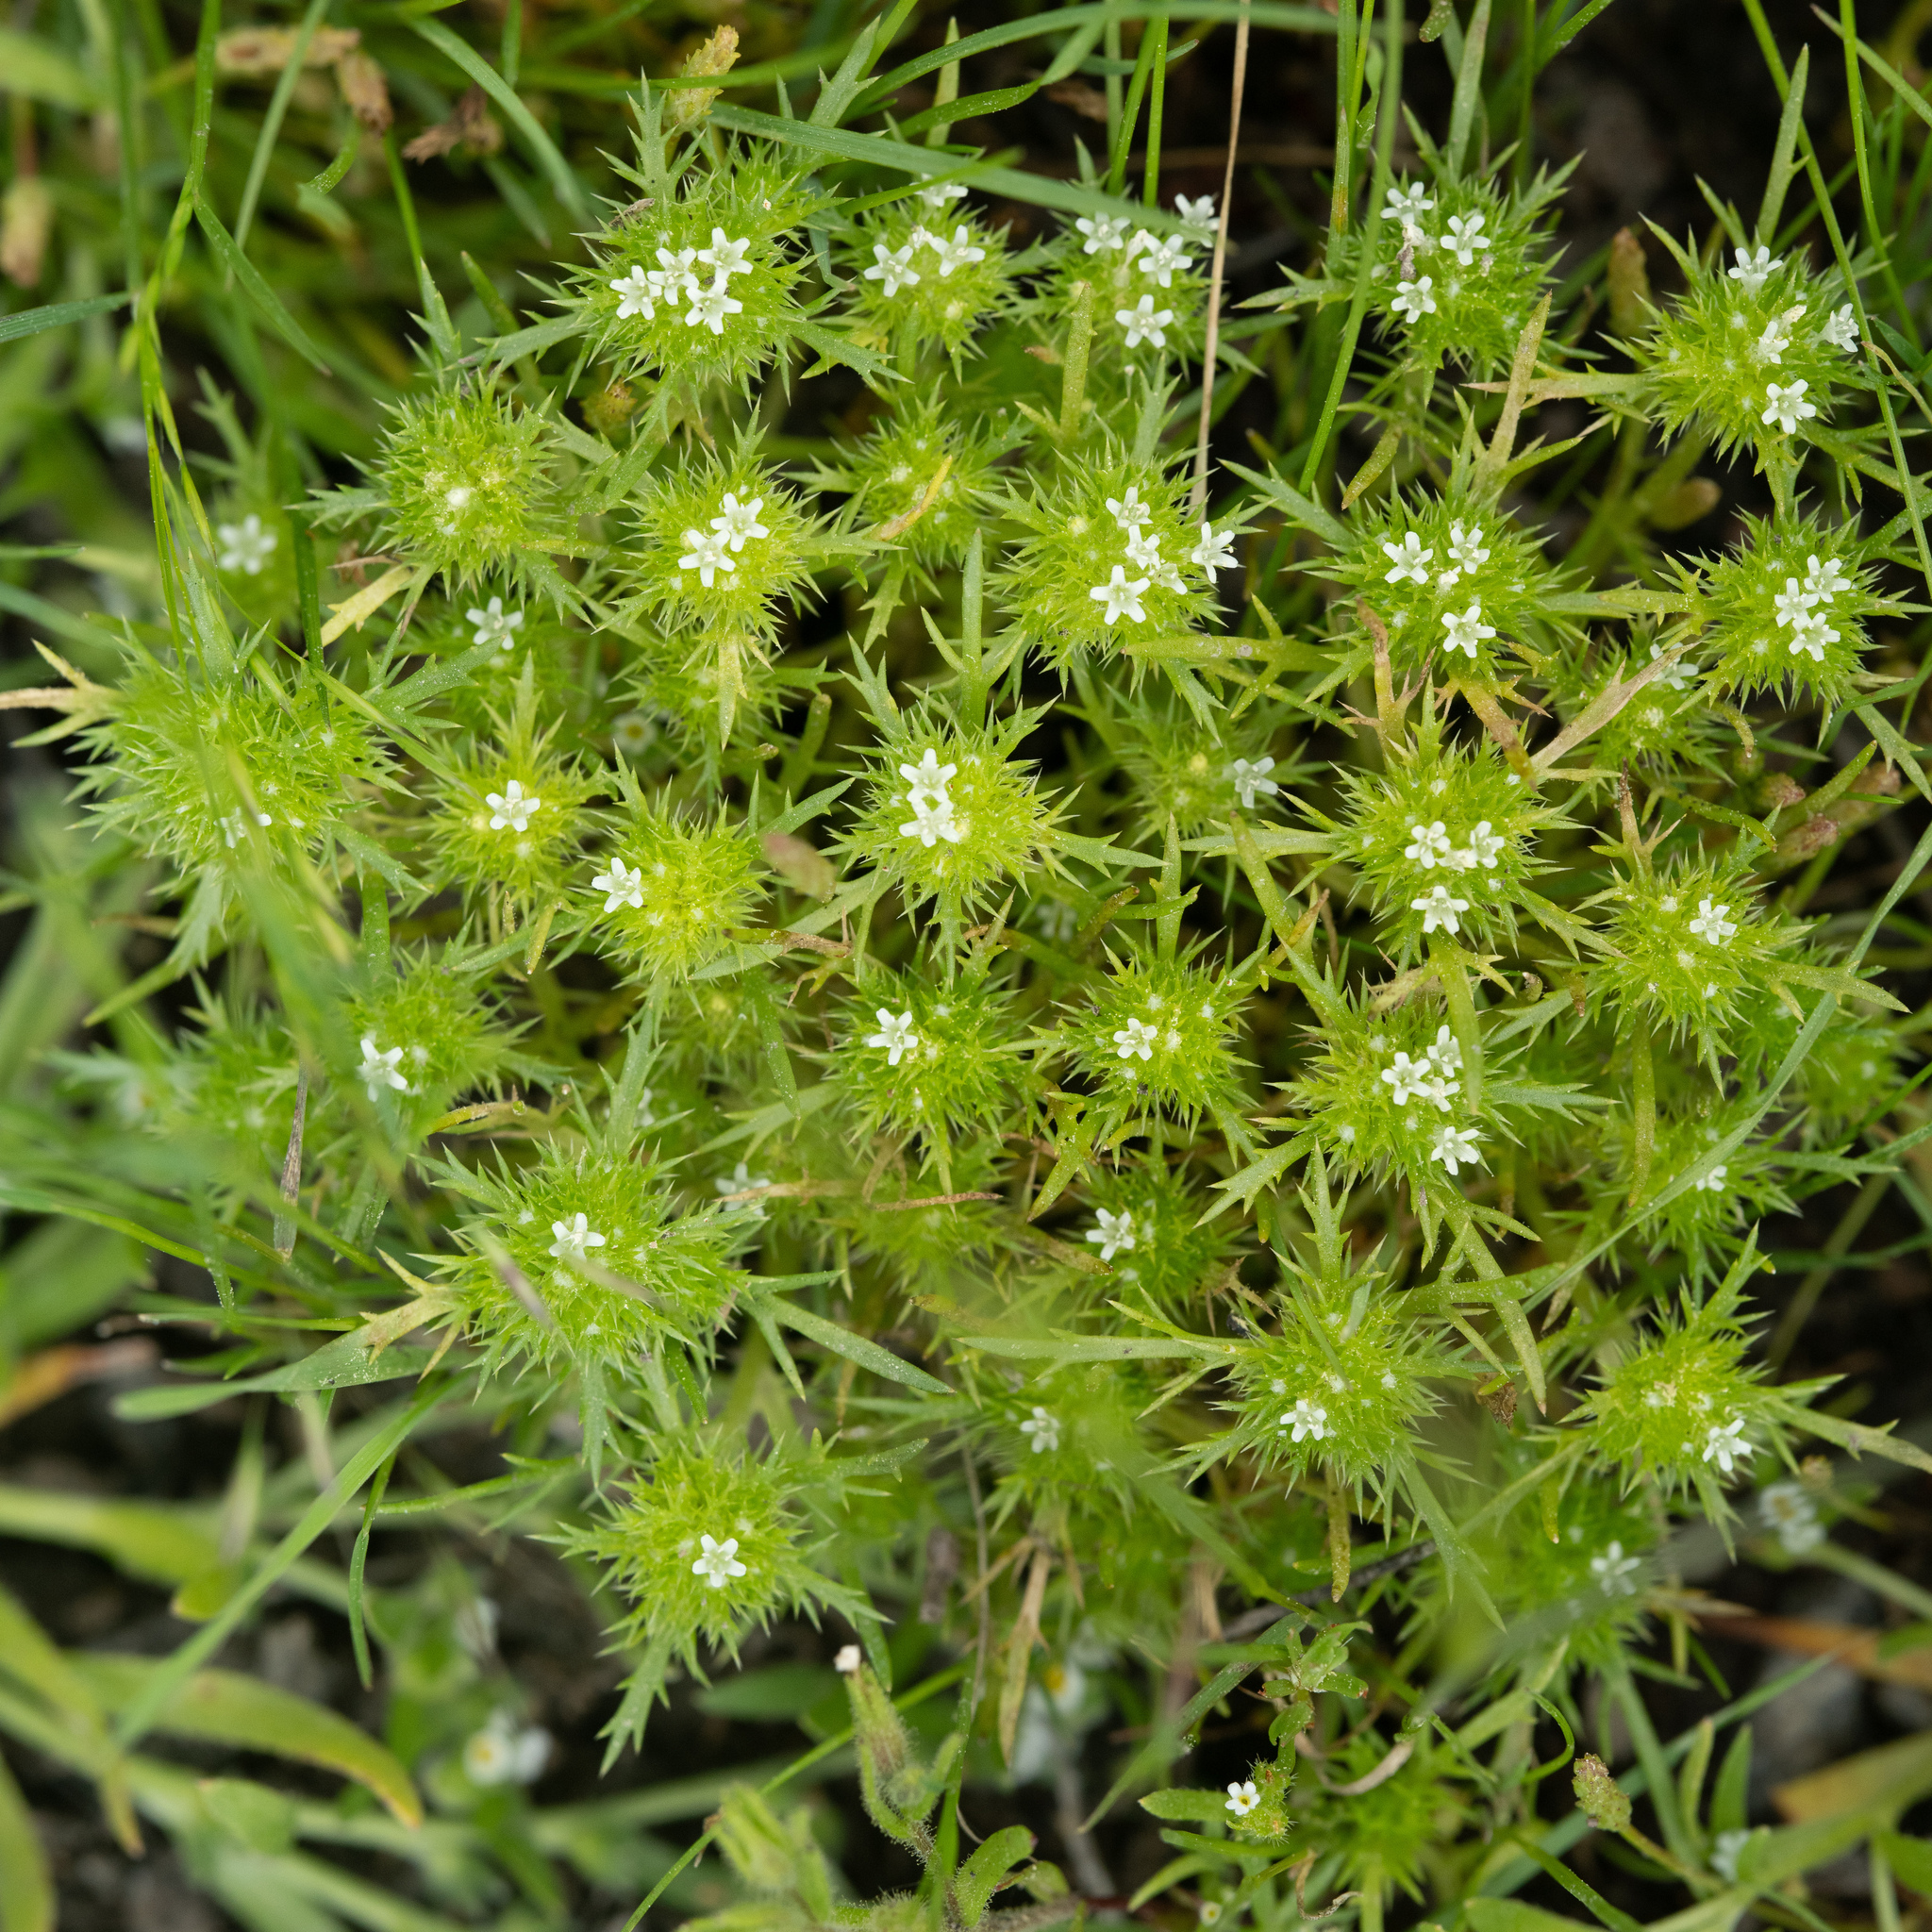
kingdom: Plantae
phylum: Tracheophyta
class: Magnoliopsida
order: Ericales
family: Polemoniaceae
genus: Navarretia
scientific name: Navarretia leucocephala
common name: White-flowered navarretia
